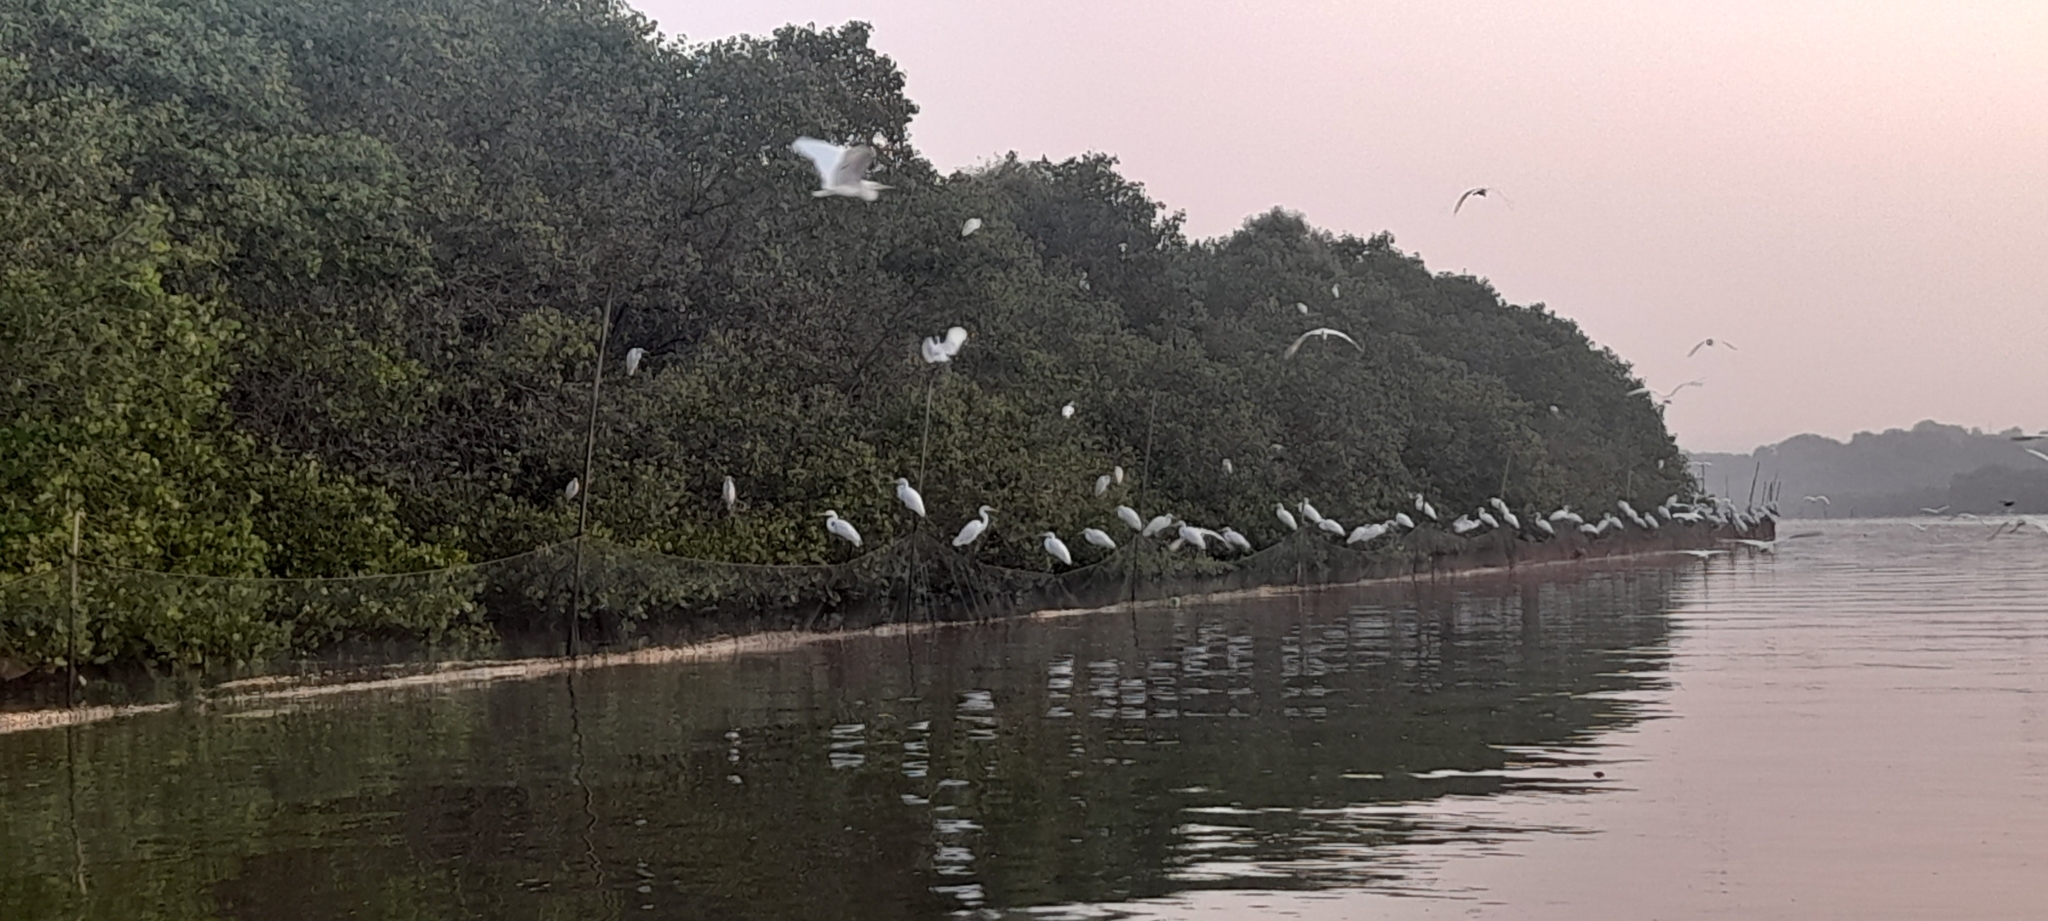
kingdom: Animalia
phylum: Chordata
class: Aves
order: Pelecaniformes
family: Ardeidae
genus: Ardea
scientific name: Ardea alba
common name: Great egret
